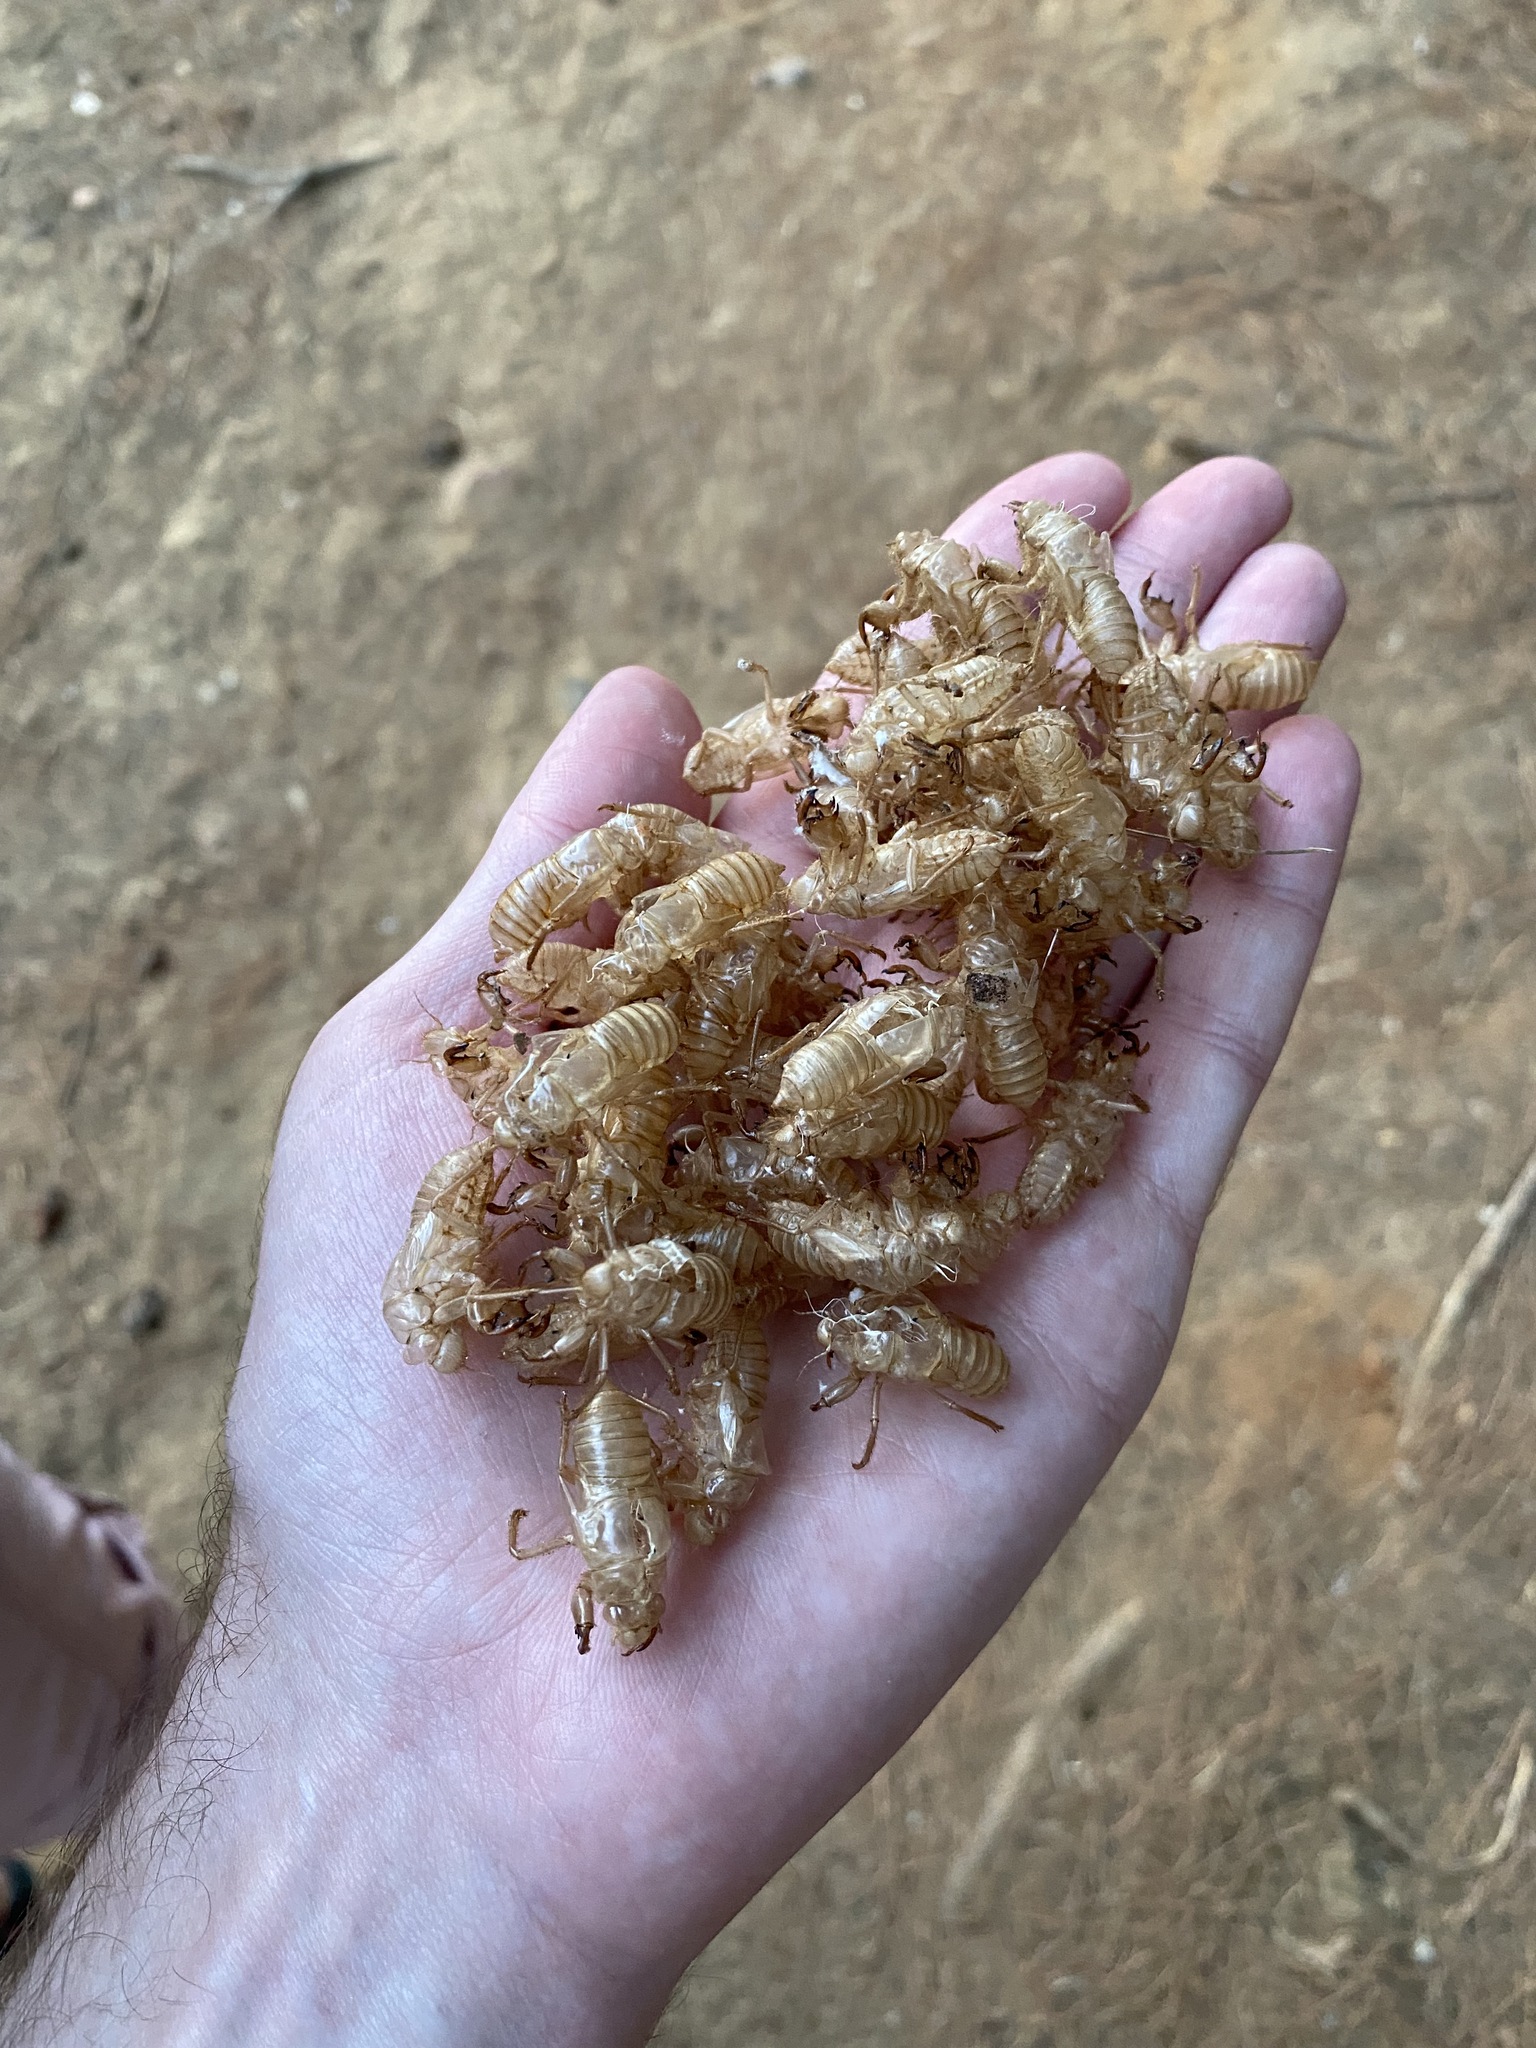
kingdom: Animalia
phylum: Arthropoda
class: Insecta
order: Hemiptera
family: Cicadidae
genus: Cicada
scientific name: Cicada cretensis
